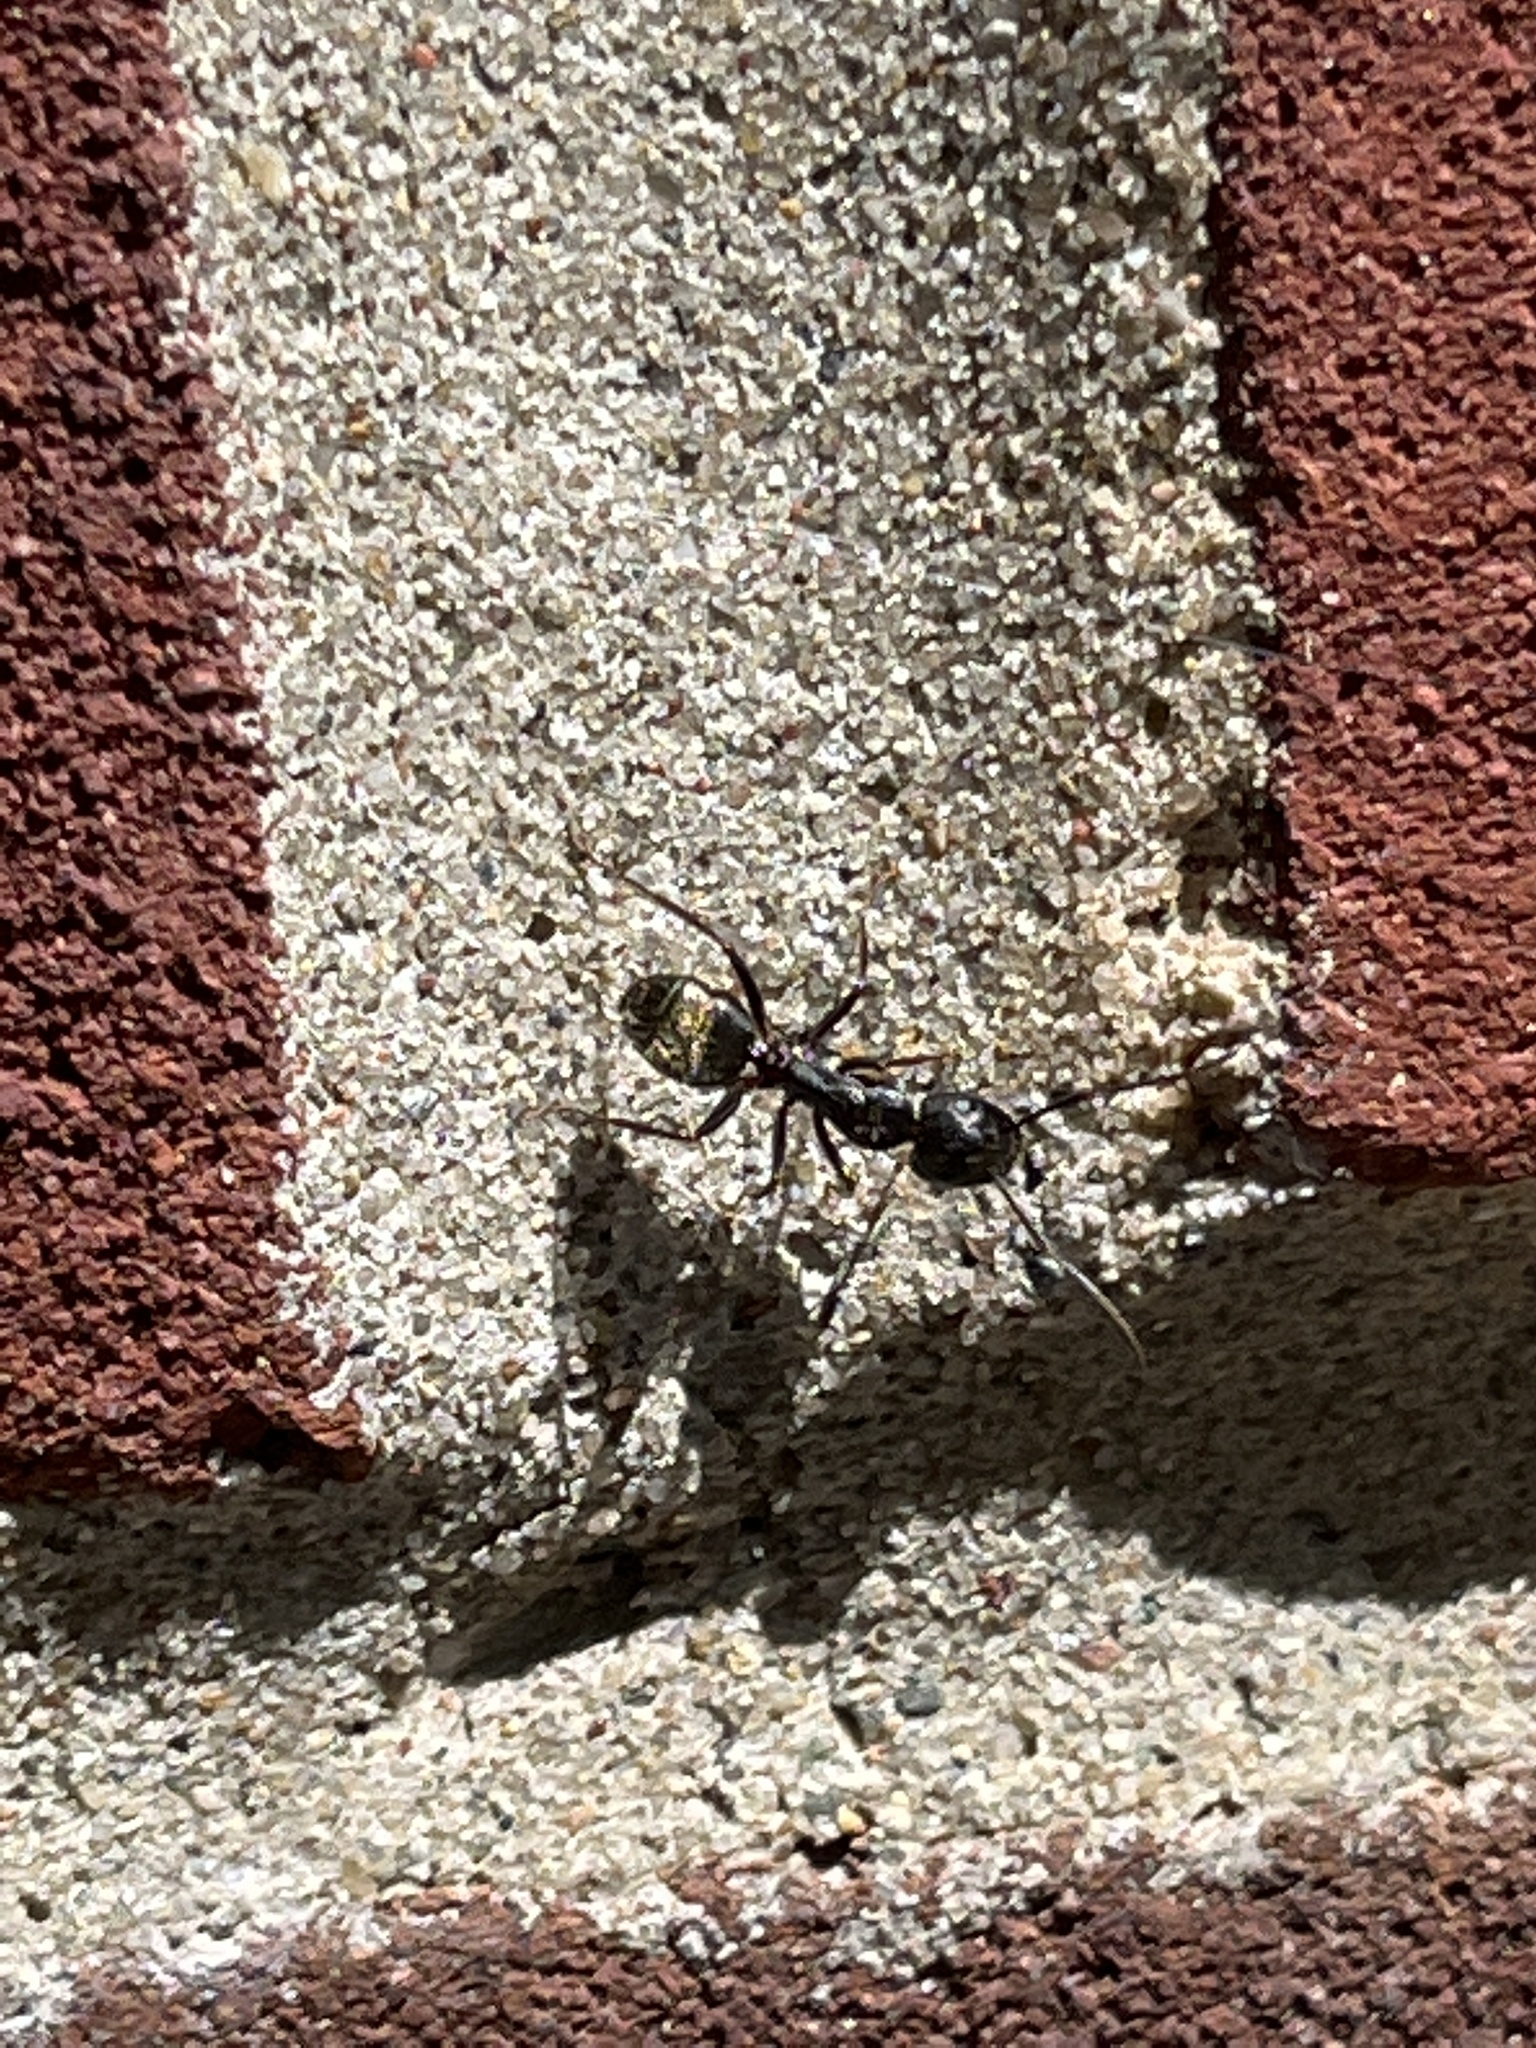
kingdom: Animalia
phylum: Arthropoda
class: Insecta
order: Hymenoptera
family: Formicidae
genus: Camponotus
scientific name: Camponotus pennsylvanicus
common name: Black carpenter ant
